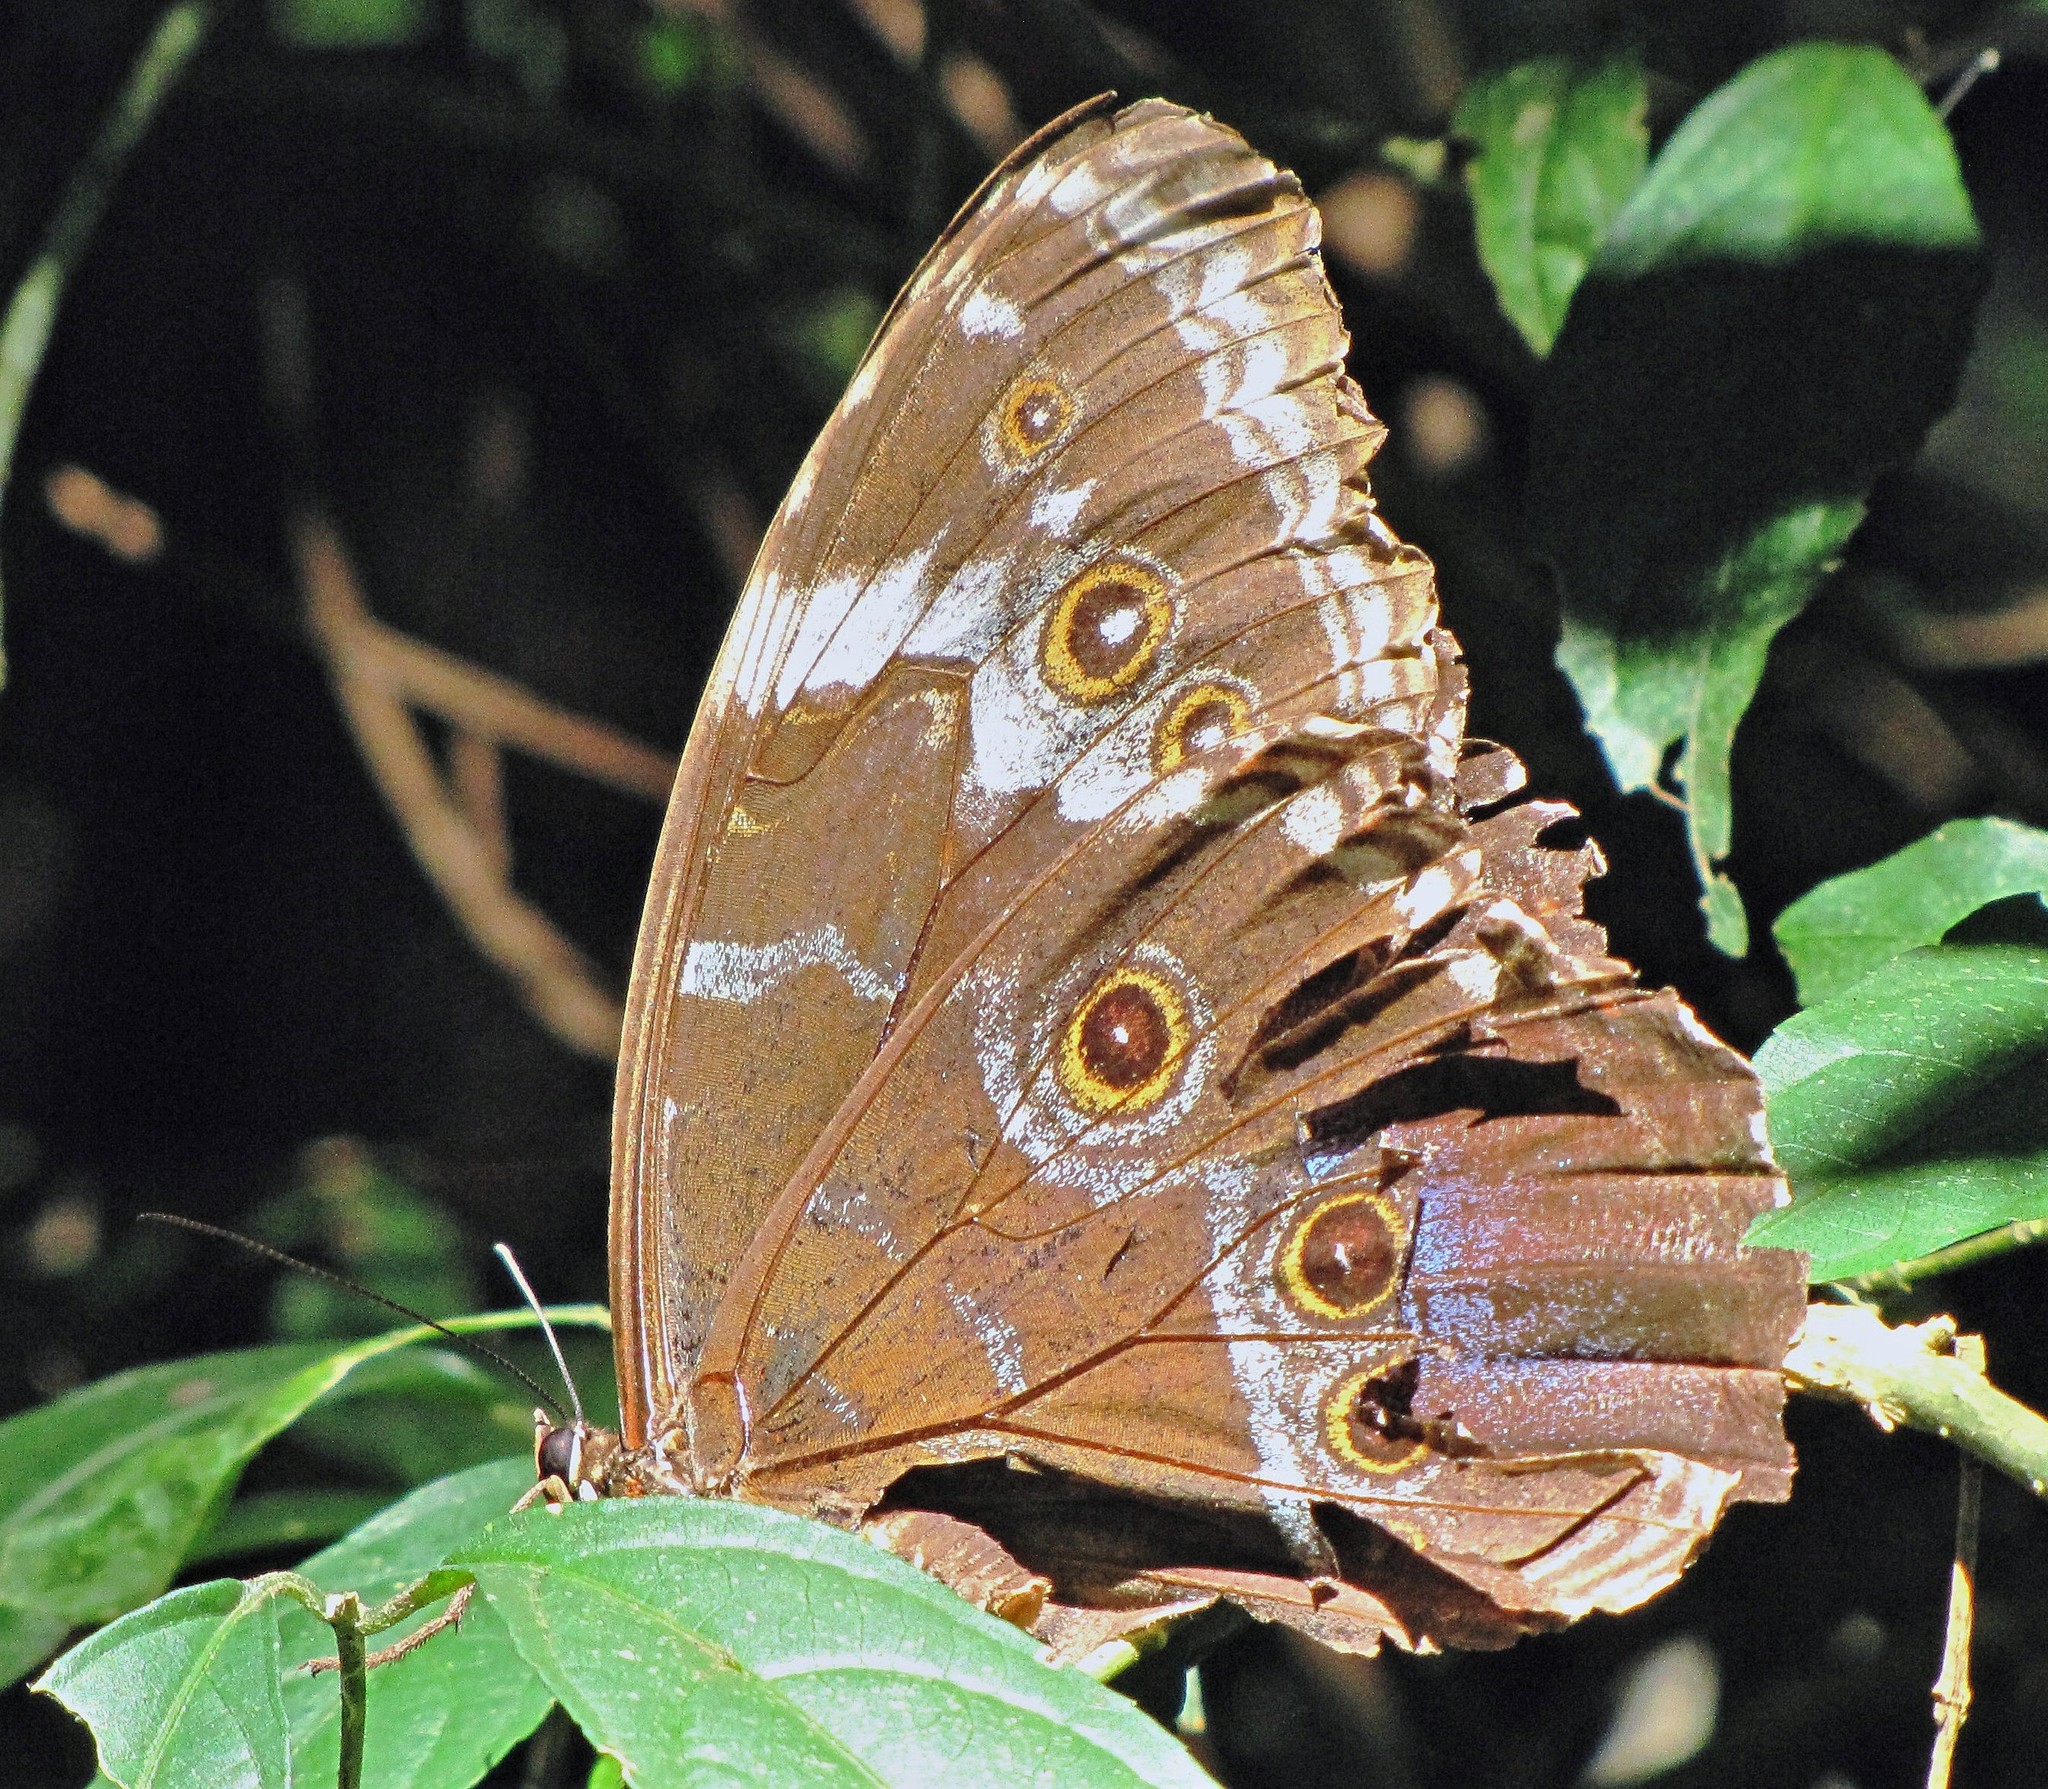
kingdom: Animalia
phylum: Arthropoda
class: Insecta
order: Lepidoptera
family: Nymphalidae
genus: Morpho
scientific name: Morpho helenor
